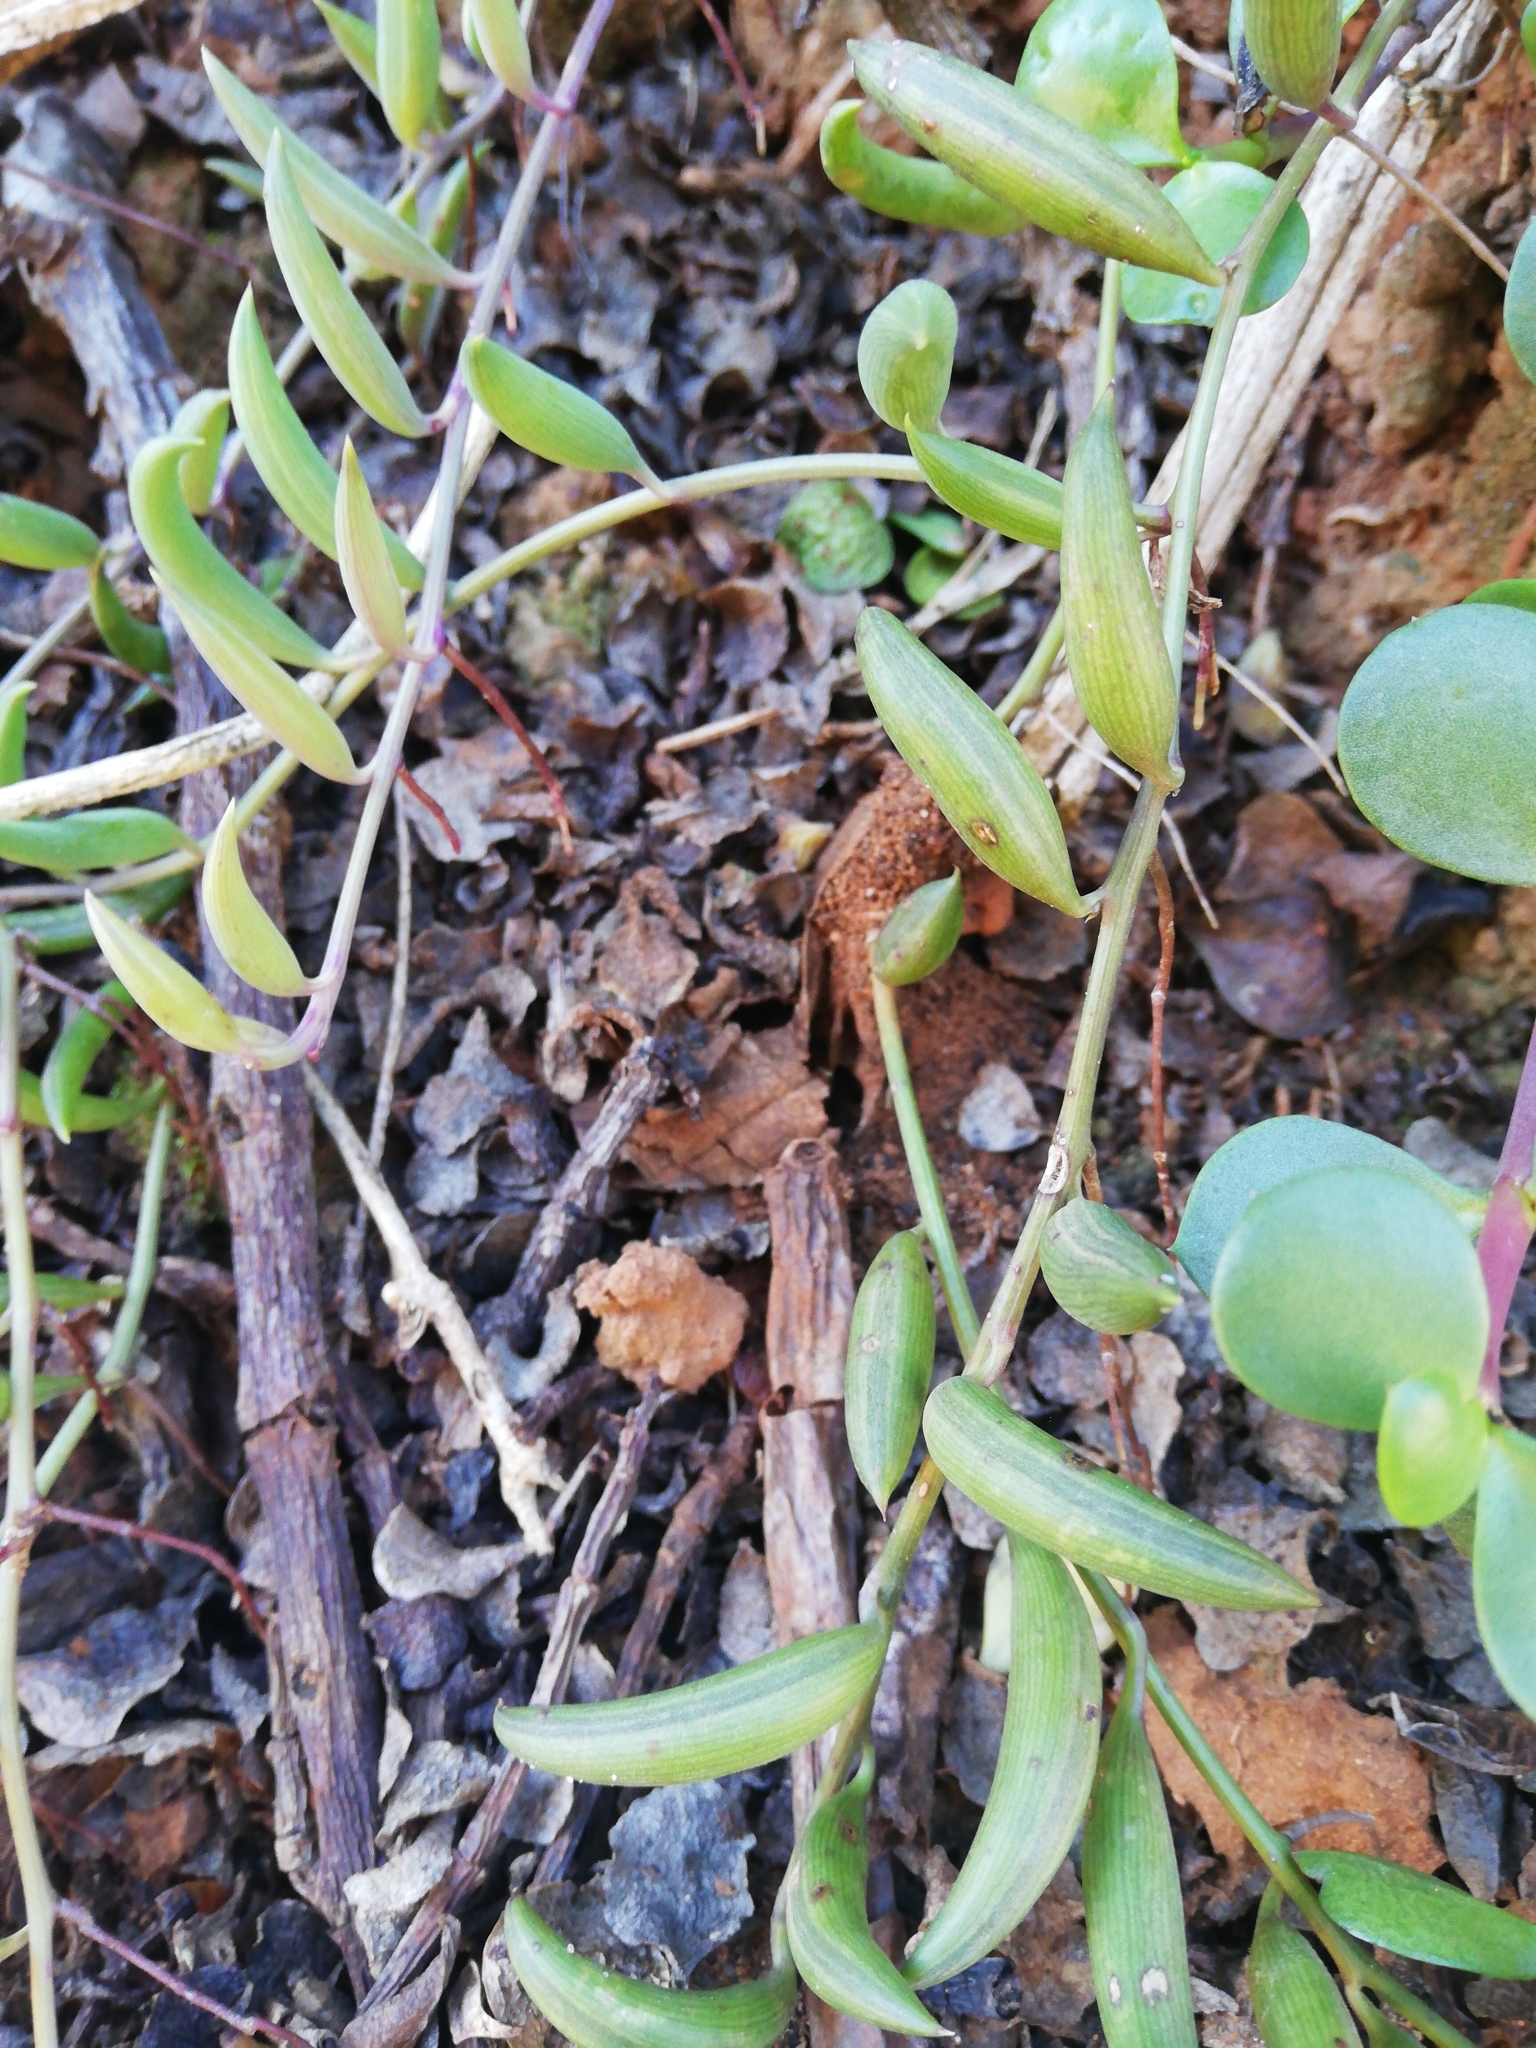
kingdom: Plantae
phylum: Tracheophyta
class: Magnoliopsida
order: Asterales
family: Asteraceae
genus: Curio
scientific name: Curio radicans
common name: Creeping-berry
